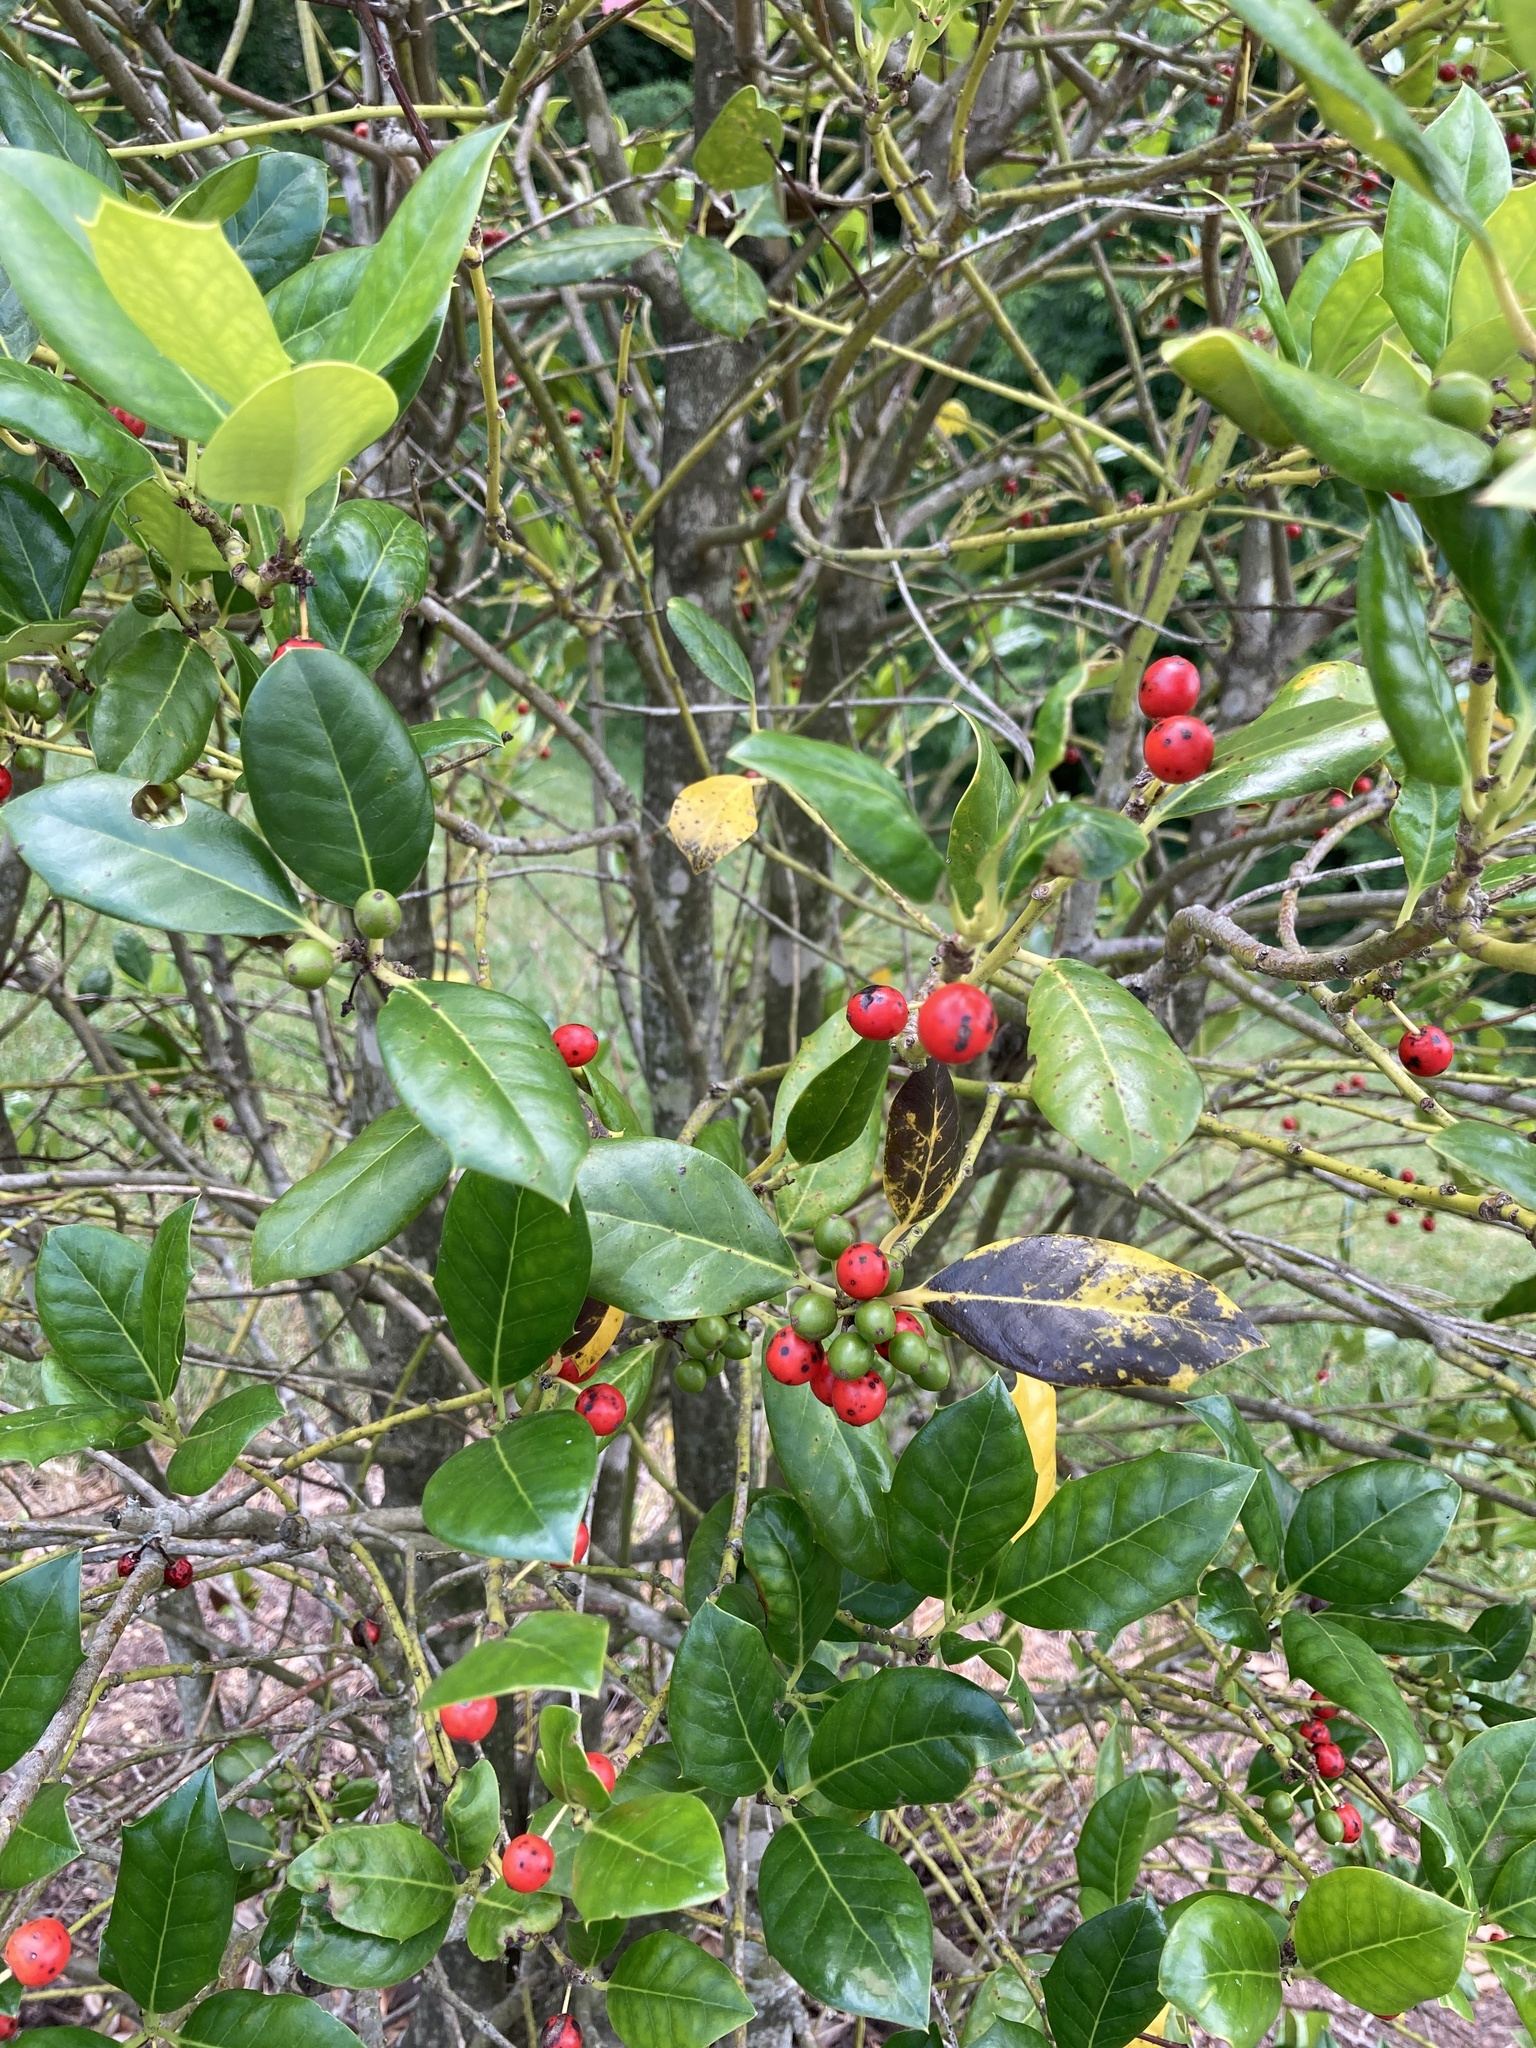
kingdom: Plantae
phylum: Tracheophyta
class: Magnoliopsida
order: Aquifoliales
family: Aquifoliaceae
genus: Ilex
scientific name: Ilex opaca
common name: American holly
